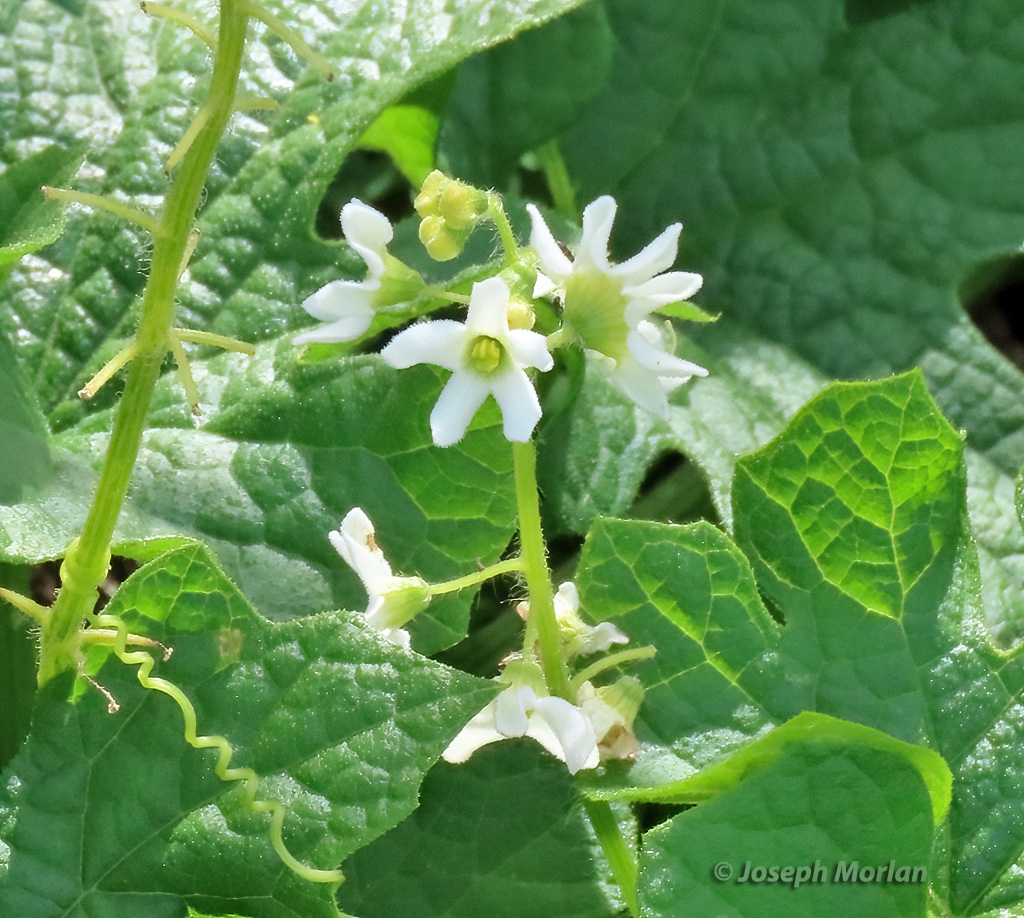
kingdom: Plantae
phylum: Tracheophyta
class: Magnoliopsida
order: Cucurbitales
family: Cucurbitaceae
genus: Marah
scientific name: Marah oregana
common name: Coastal manroot
